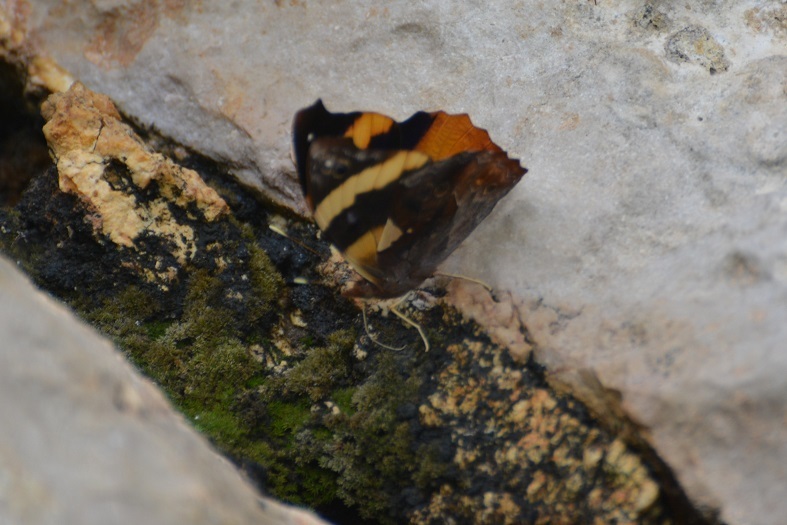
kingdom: Animalia
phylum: Arthropoda
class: Insecta
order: Lepidoptera
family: Nymphalidae
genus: Epiphile
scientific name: Epiphile adrasta
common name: Common banner
